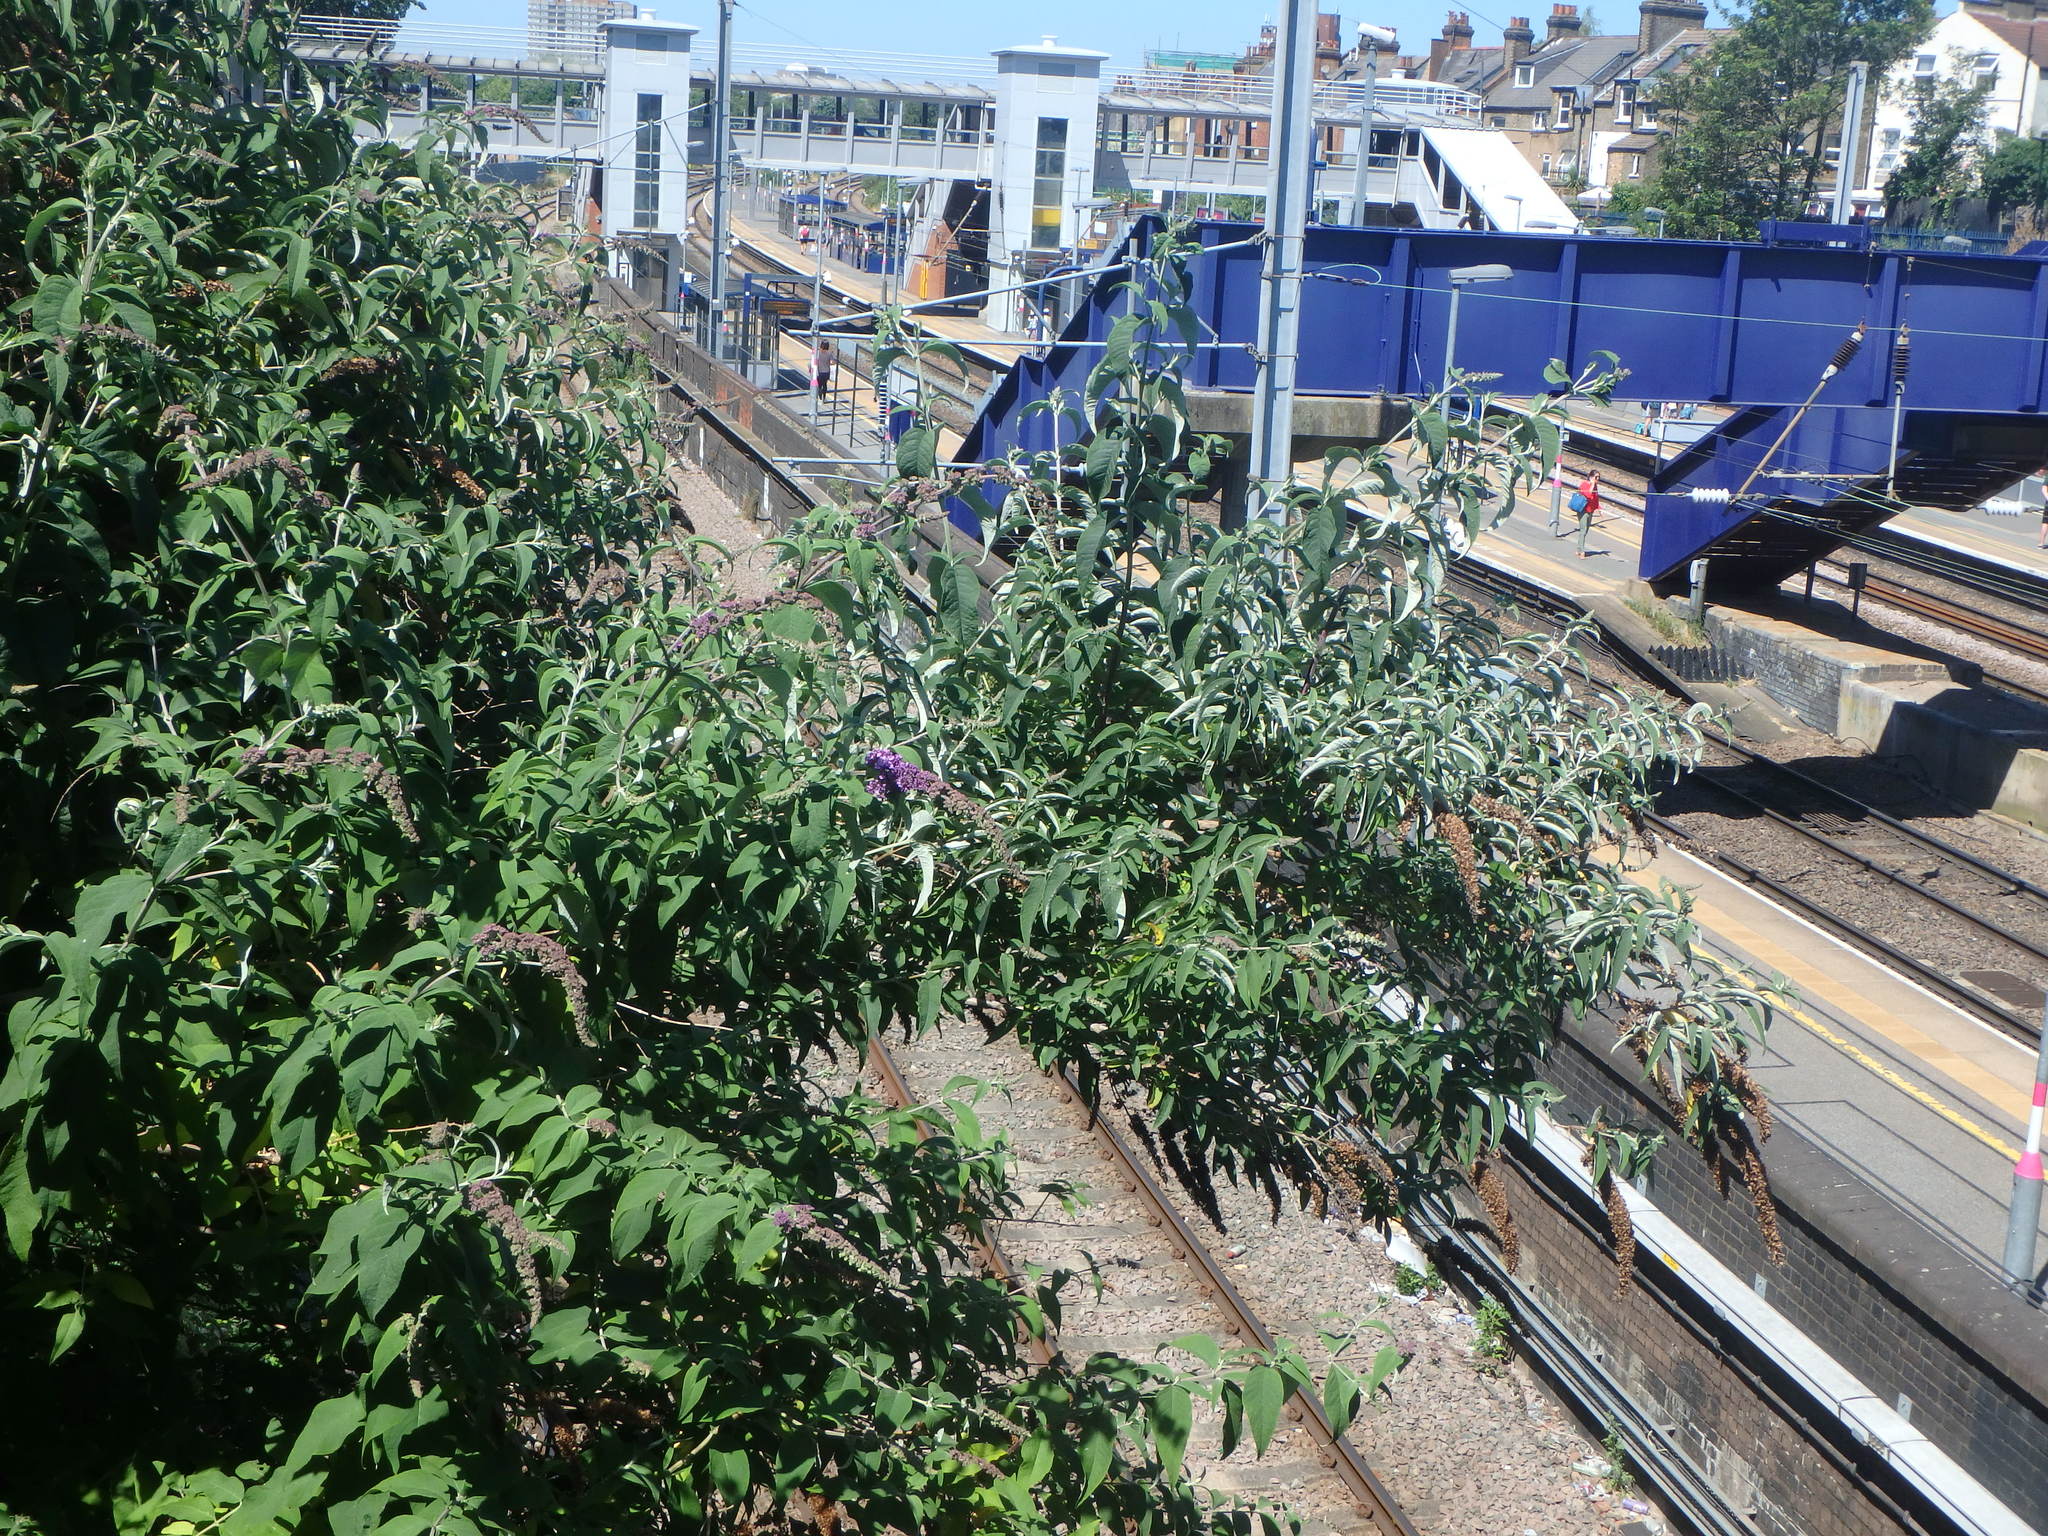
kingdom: Plantae
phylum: Tracheophyta
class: Magnoliopsida
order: Lamiales
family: Scrophulariaceae
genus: Buddleja
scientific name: Buddleja davidii
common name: Butterfly-bush
